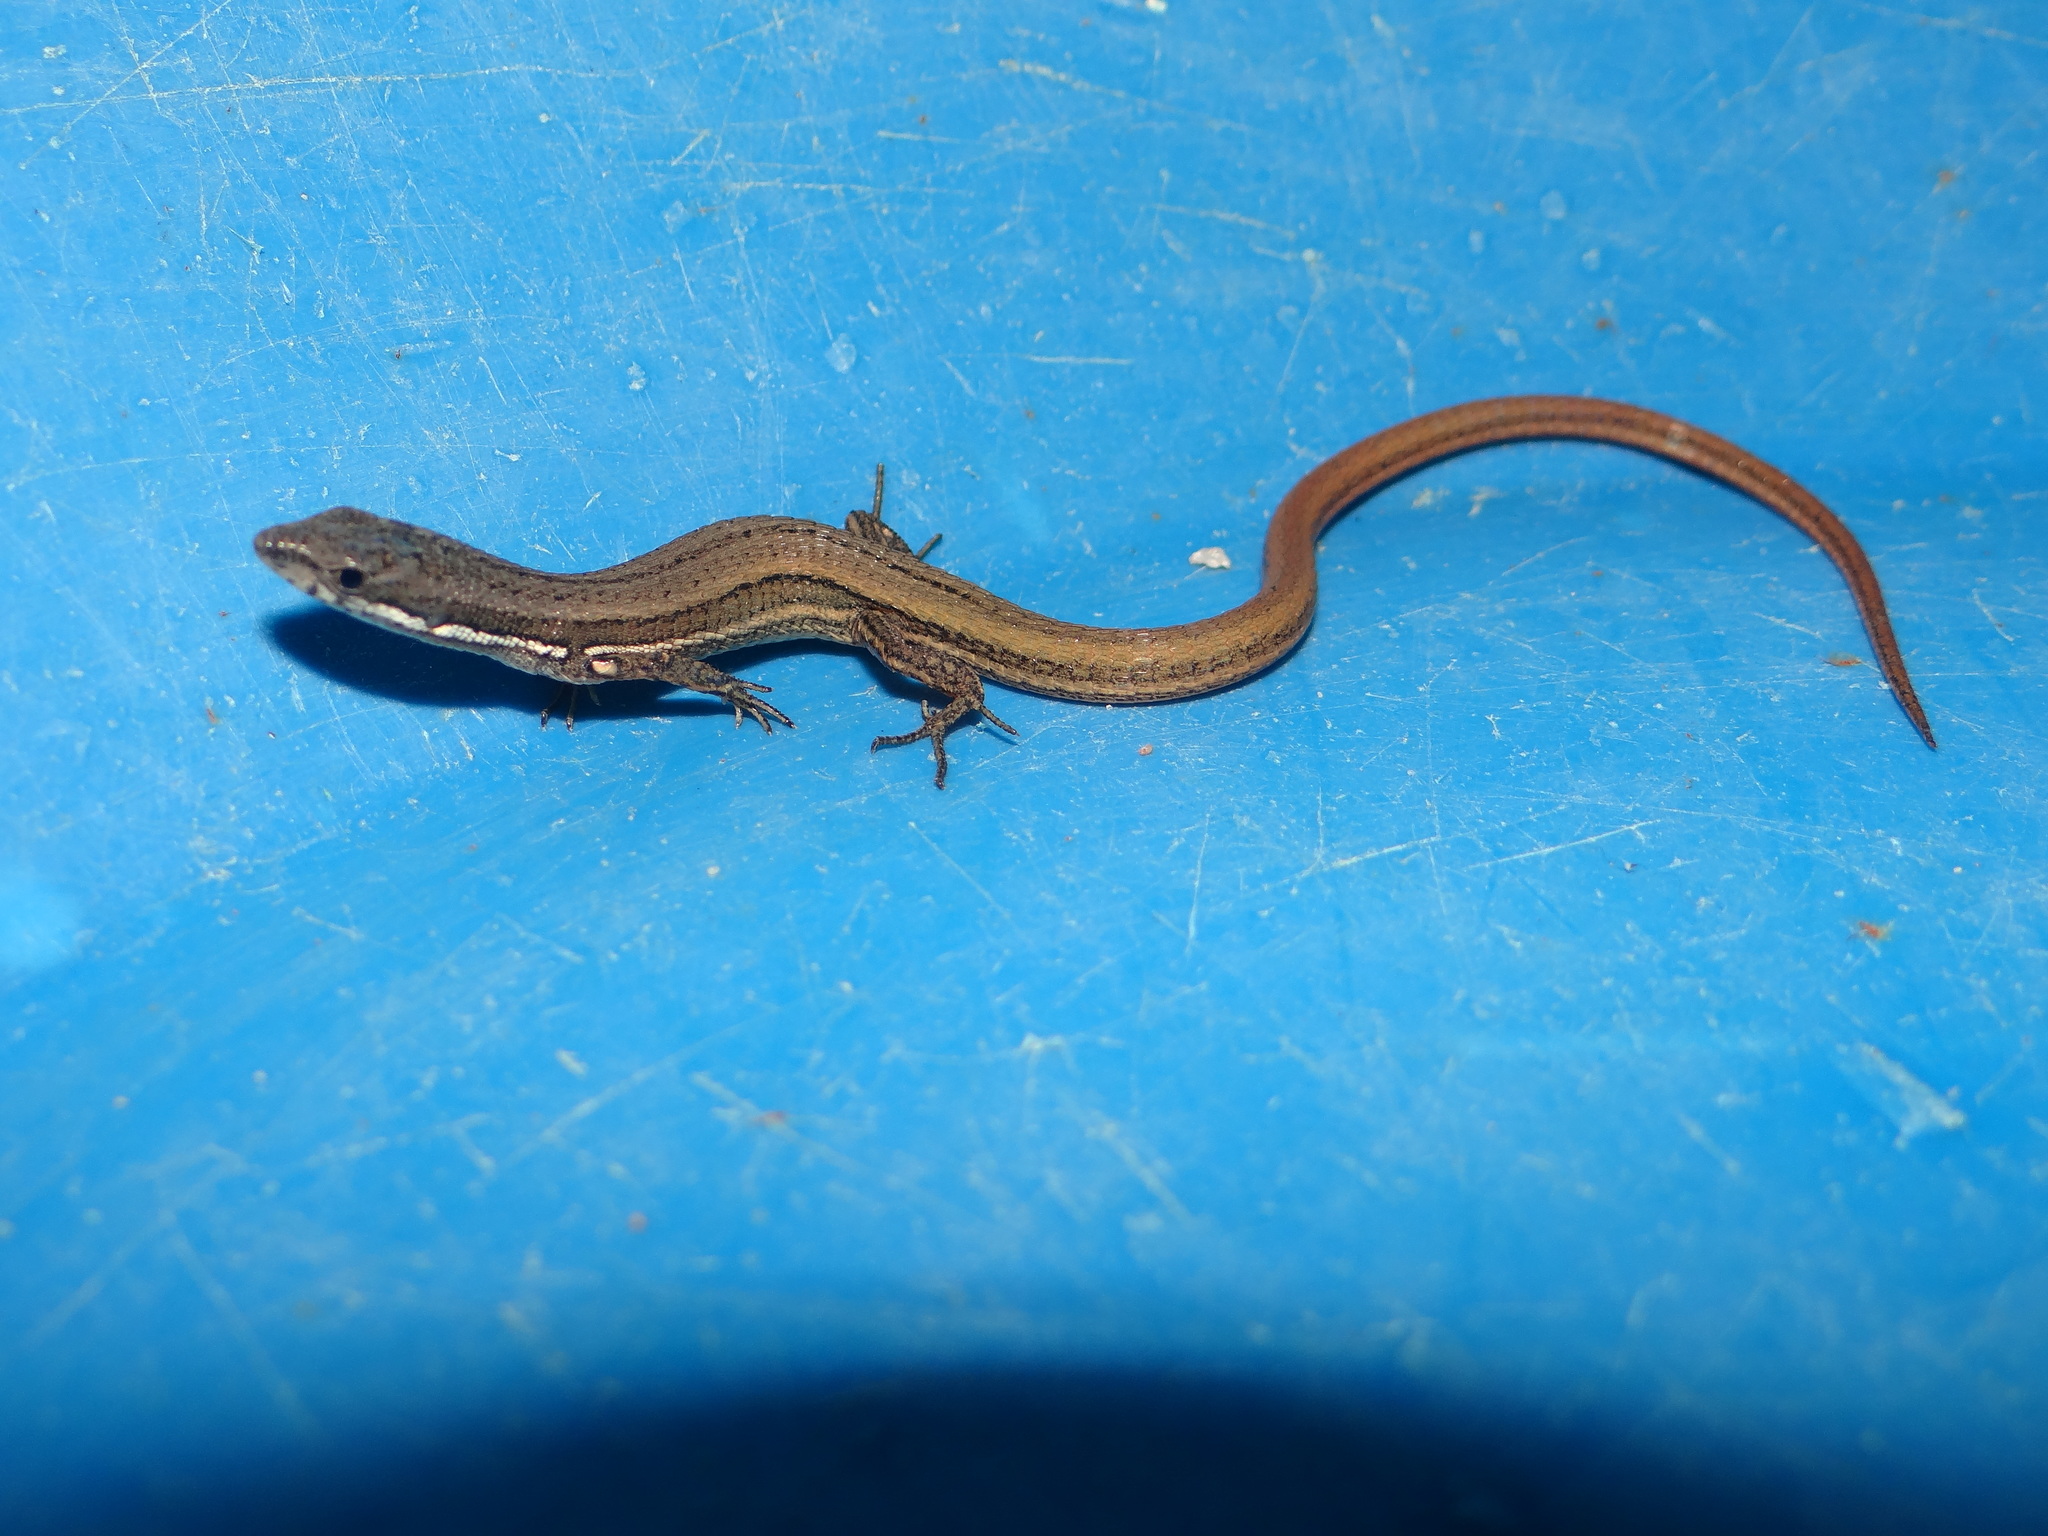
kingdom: Animalia
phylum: Chordata
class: Squamata
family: Gymnophthalmidae
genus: Cercosaura
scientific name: Cercosaura argulus
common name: White-lipped cercosaura
